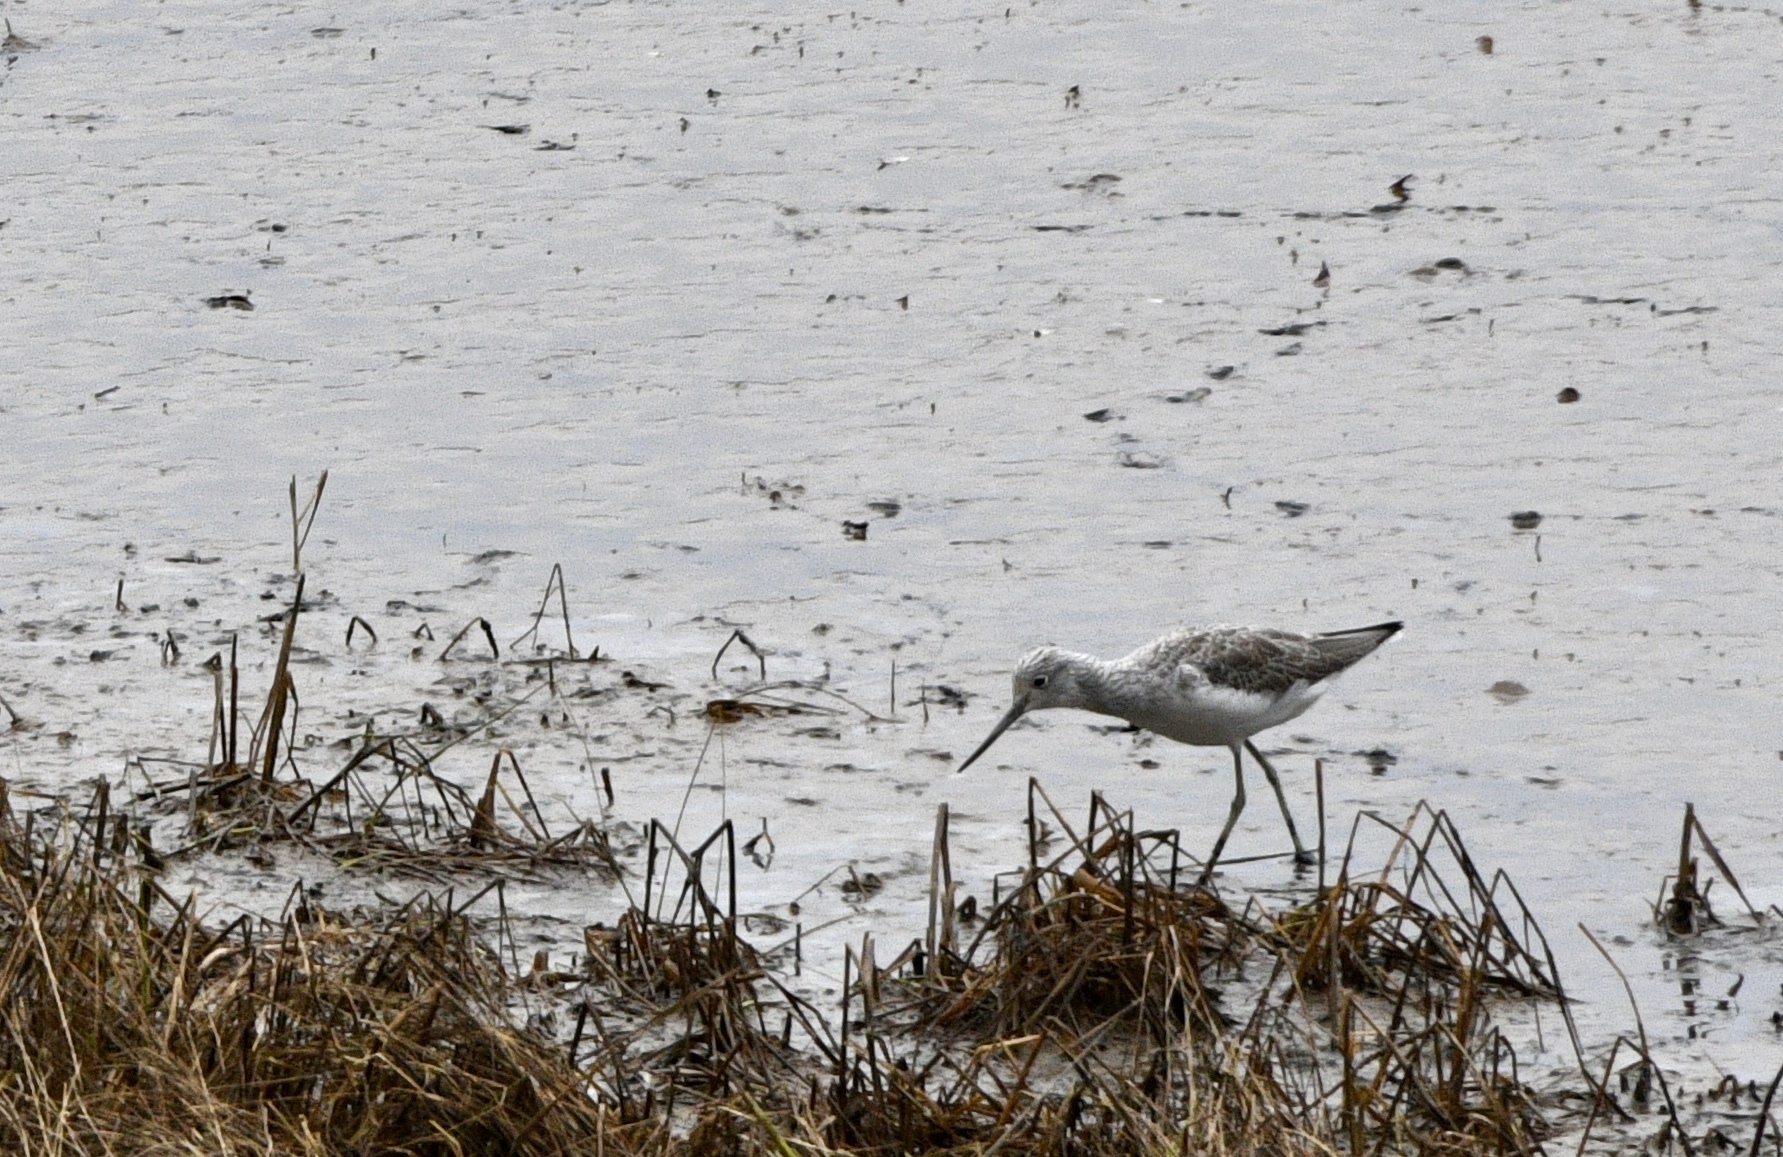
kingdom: Animalia
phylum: Chordata
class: Aves
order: Charadriiformes
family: Scolopacidae
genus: Tringa
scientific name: Tringa nebularia
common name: Common greenshank
